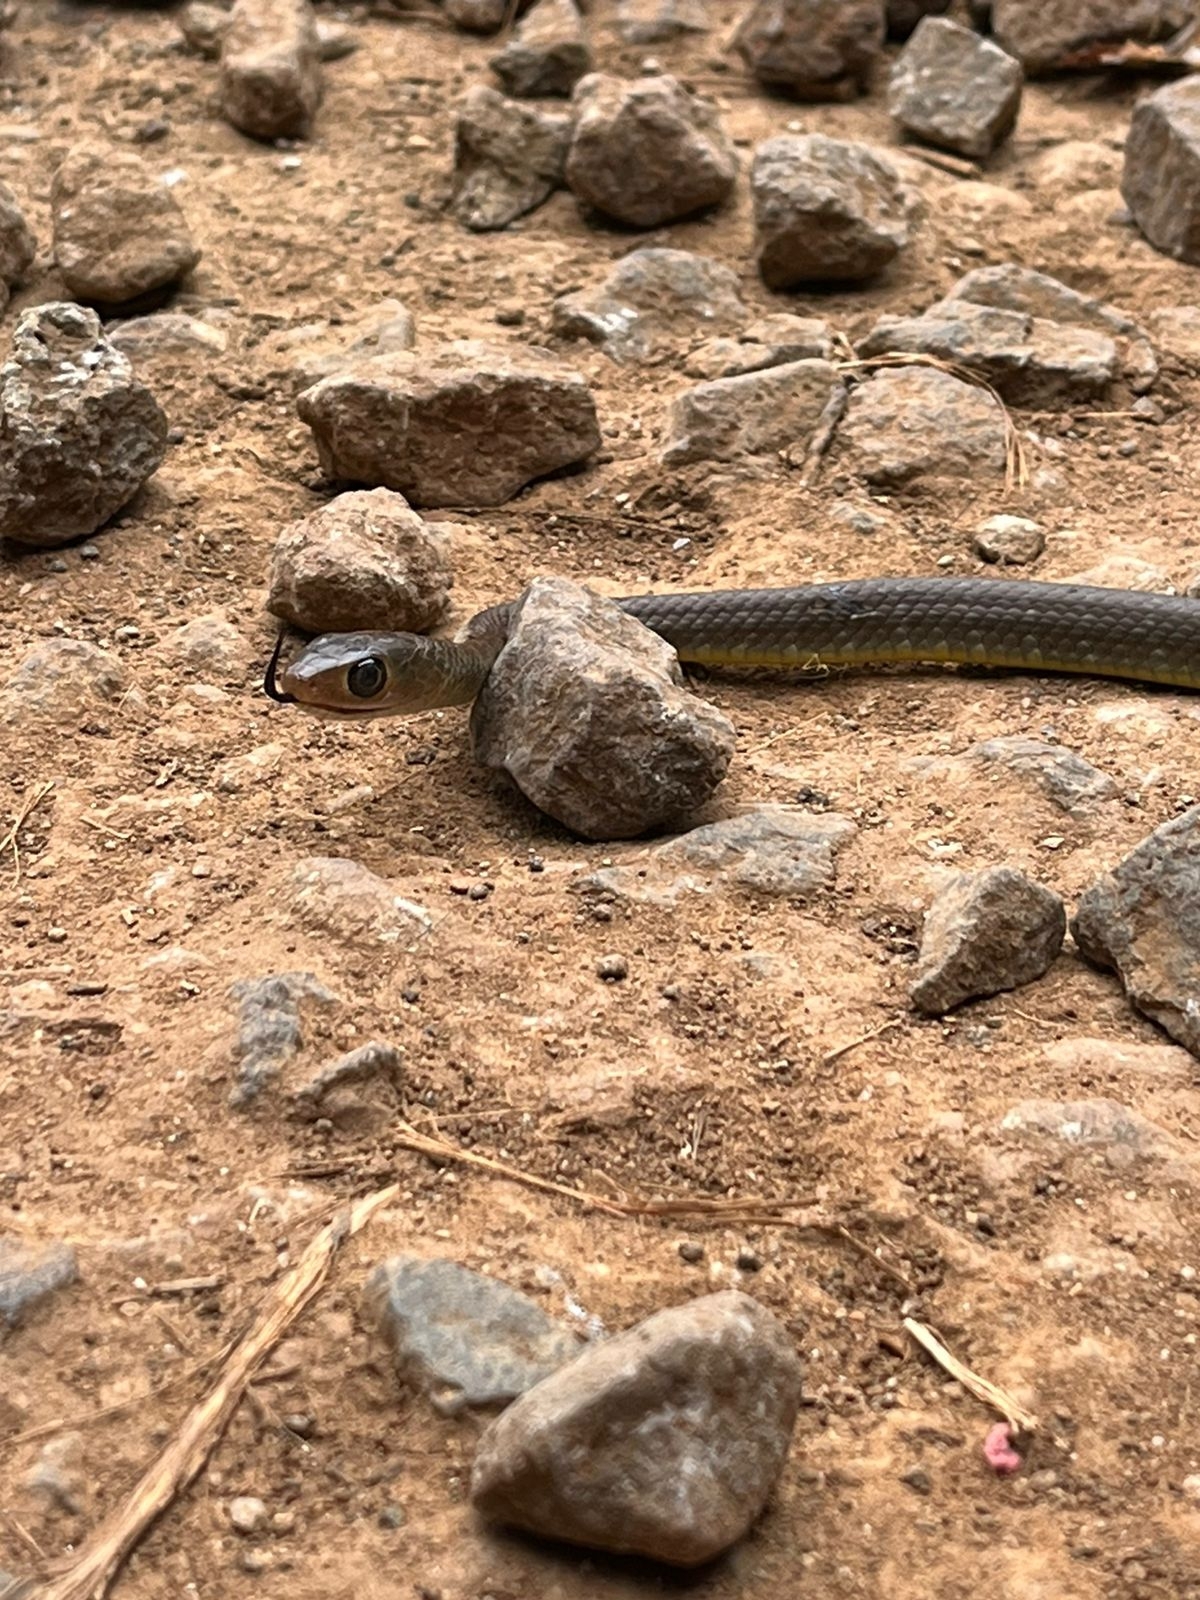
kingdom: Animalia
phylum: Chordata
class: Squamata
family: Colubridae
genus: Ptyas
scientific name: Ptyas korros
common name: Indo-chinese rat snake
